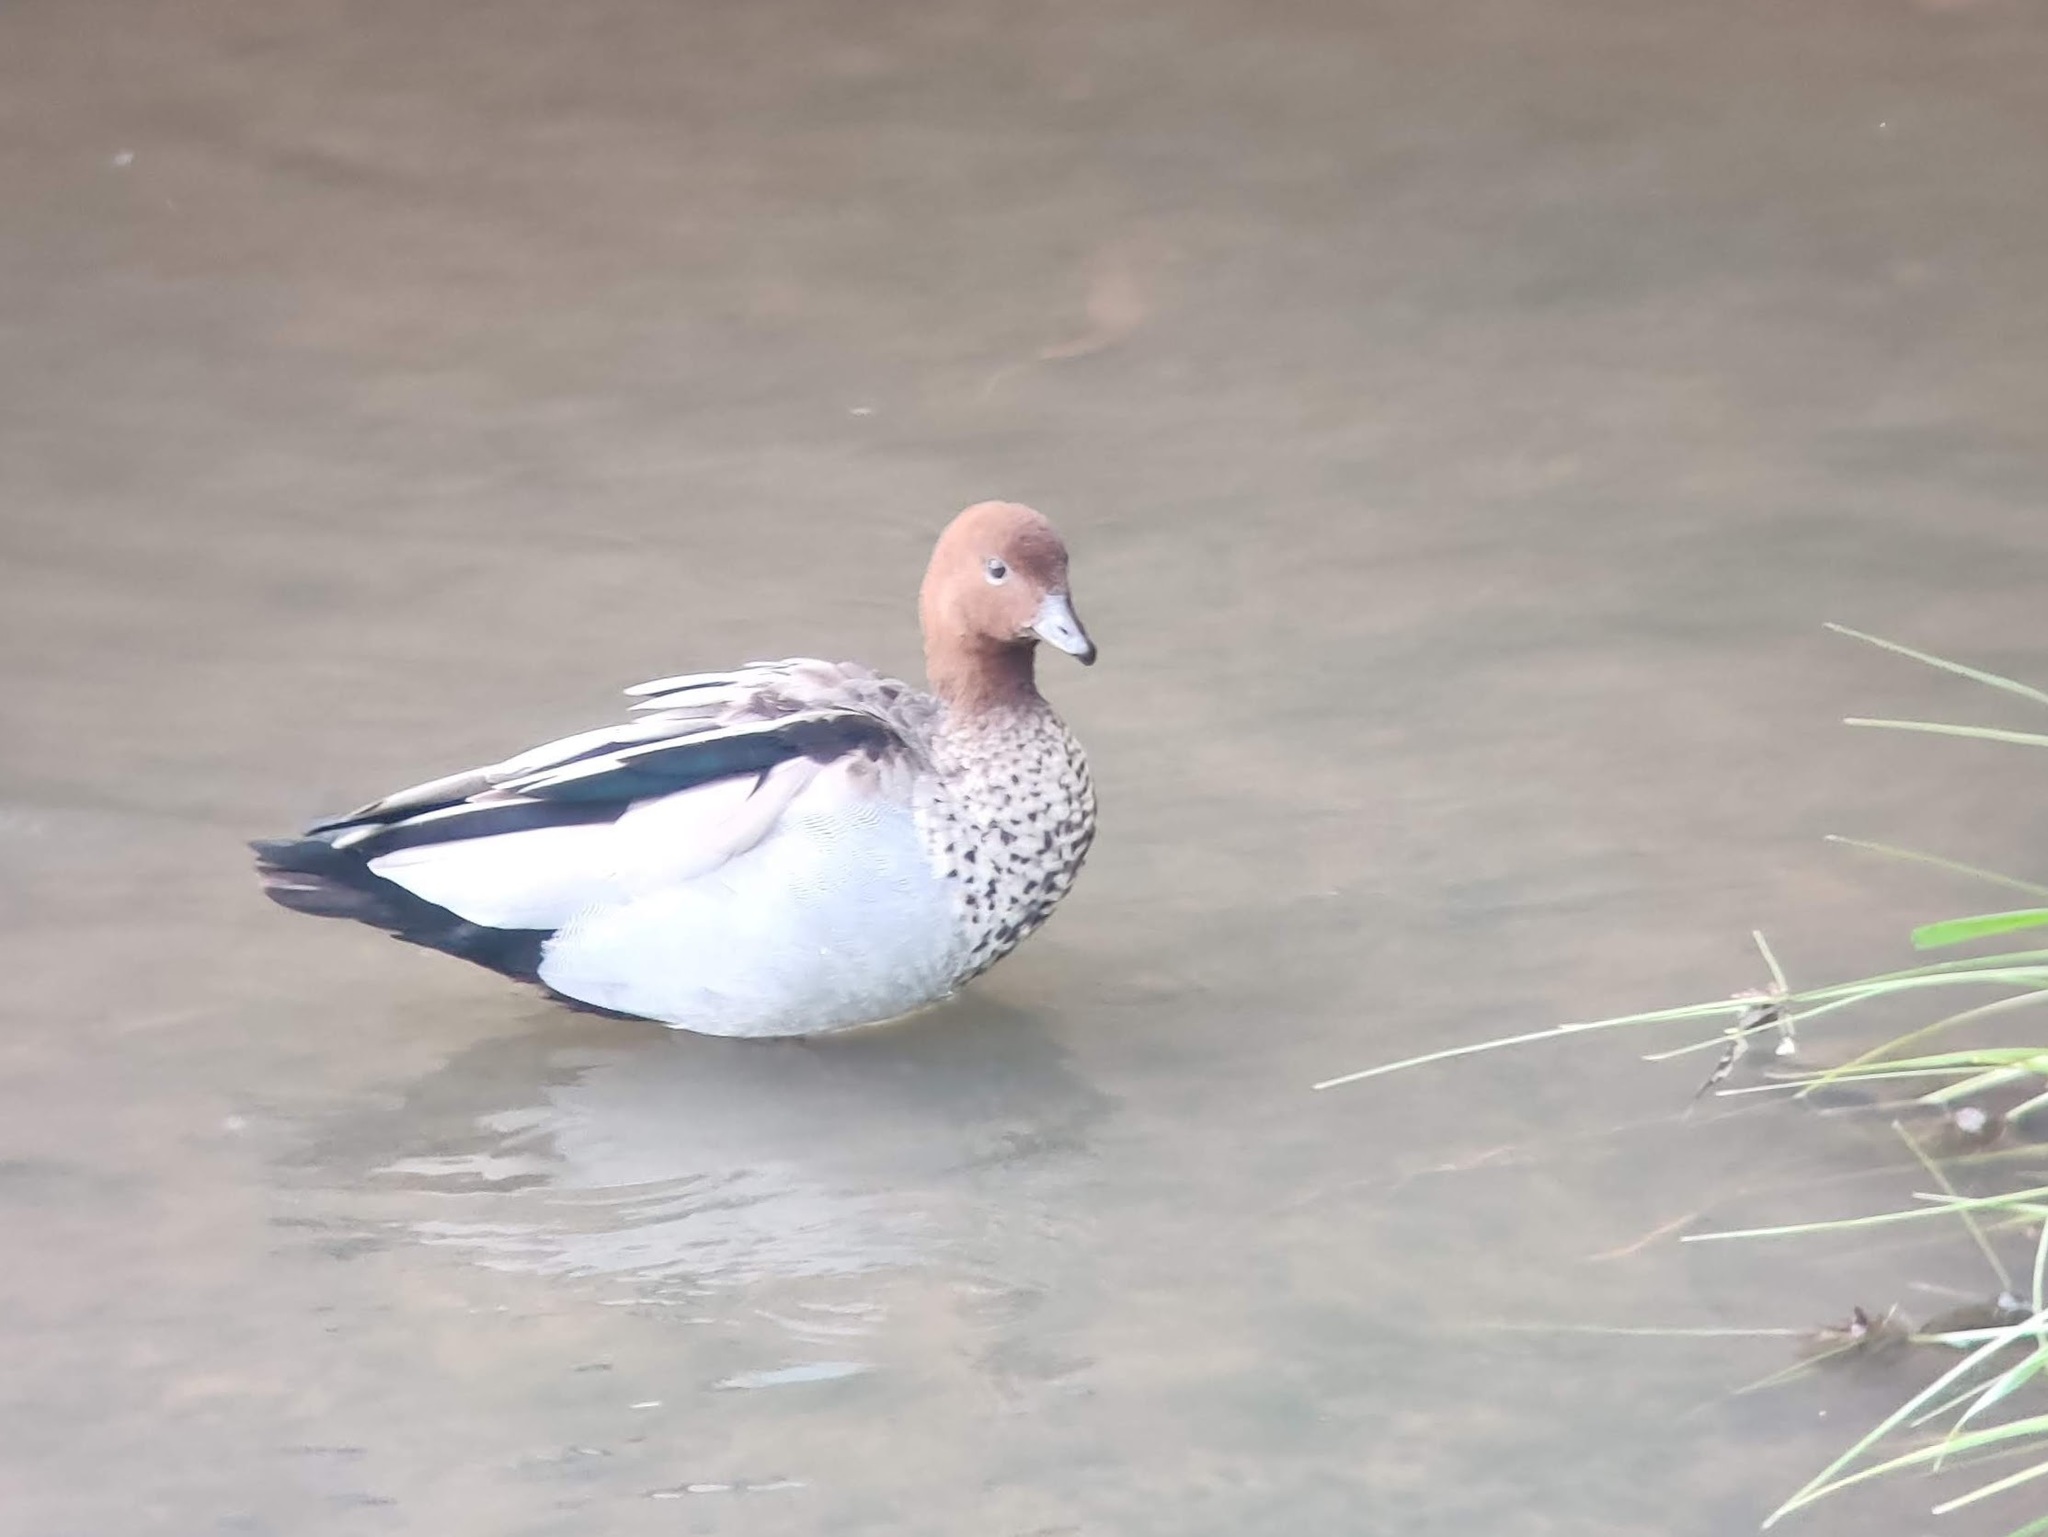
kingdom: Animalia
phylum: Chordata
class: Aves
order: Anseriformes
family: Anatidae
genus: Chenonetta
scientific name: Chenonetta jubata
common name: Maned duck
